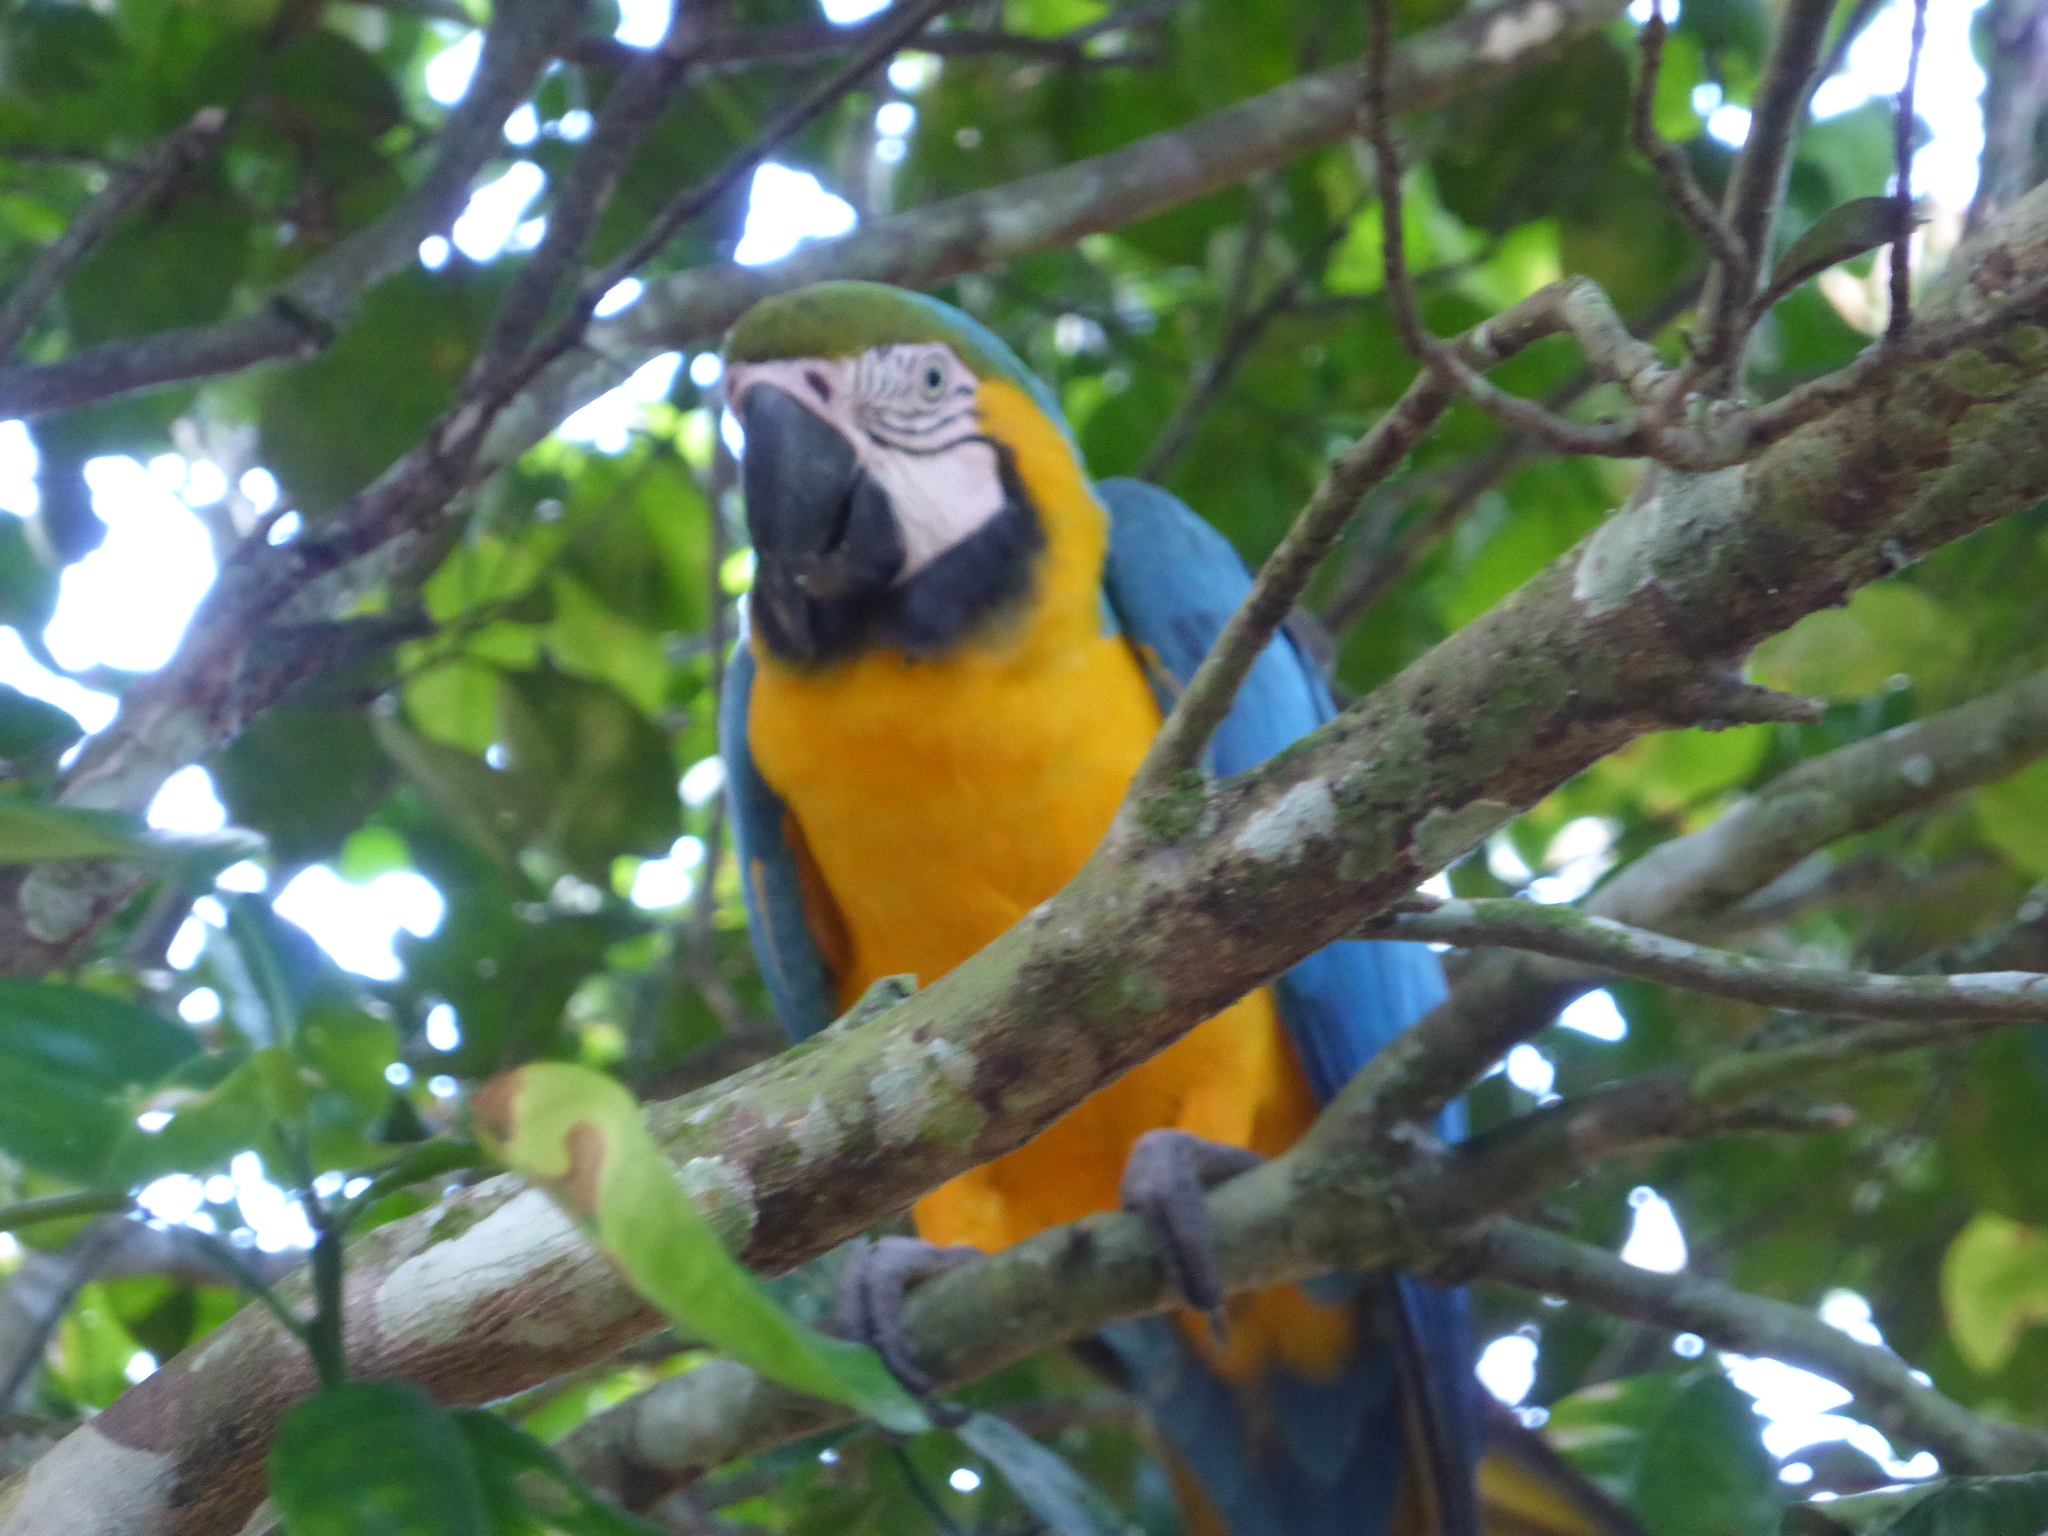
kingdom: Animalia
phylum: Chordata
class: Aves
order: Psittaciformes
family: Psittacidae
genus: Ara
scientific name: Ara ararauna
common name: Blue-and-yellow macaw
